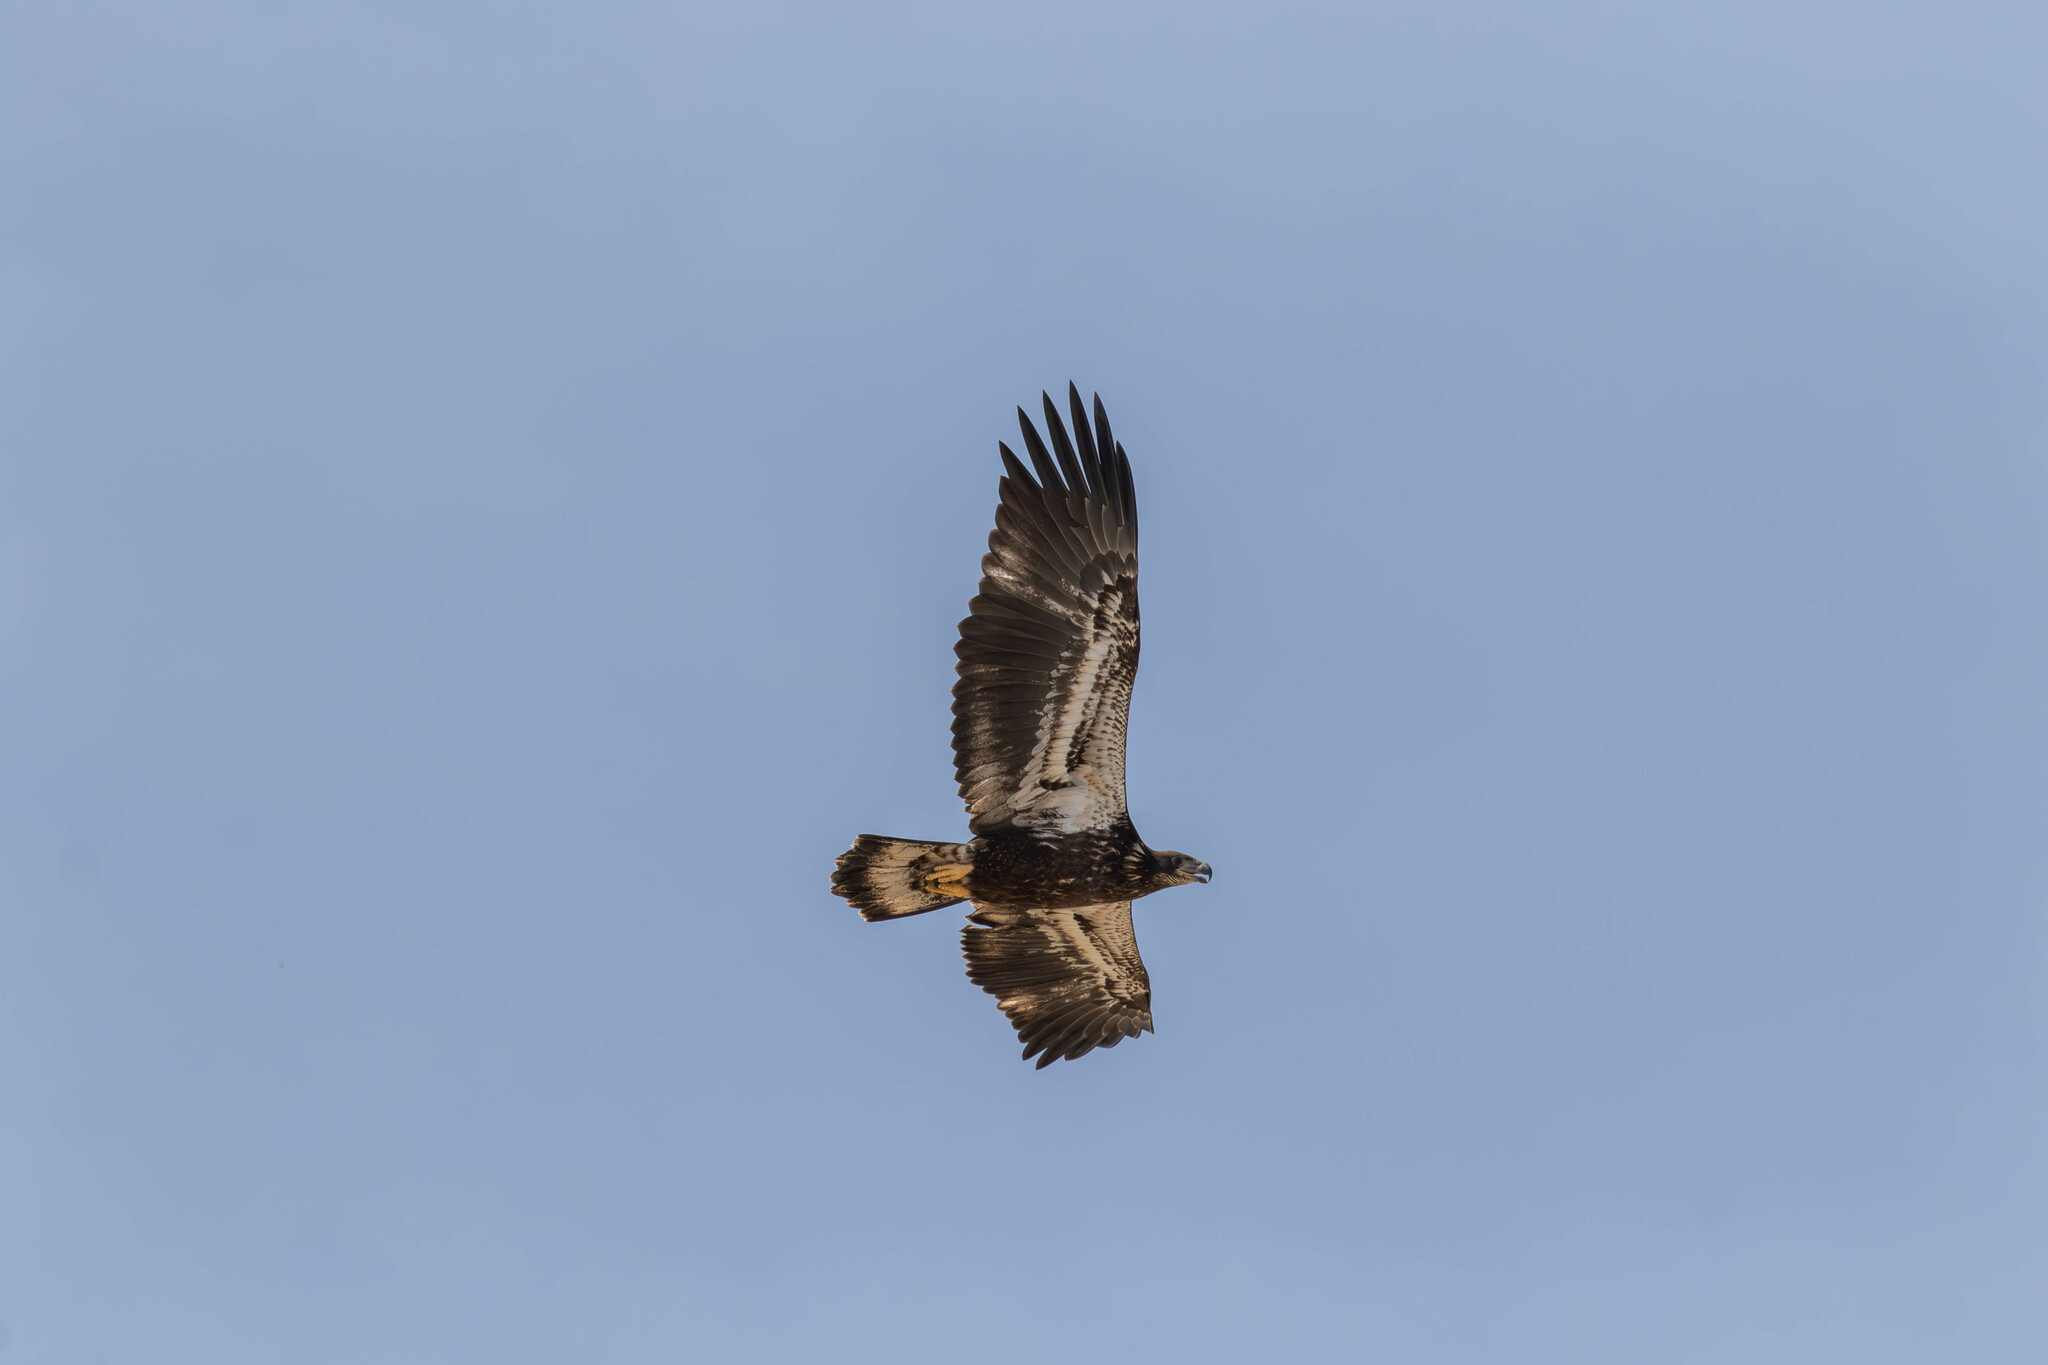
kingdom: Animalia
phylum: Chordata
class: Aves
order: Accipitriformes
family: Accipitridae
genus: Haliaeetus
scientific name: Haliaeetus leucocephalus
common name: Bald eagle
